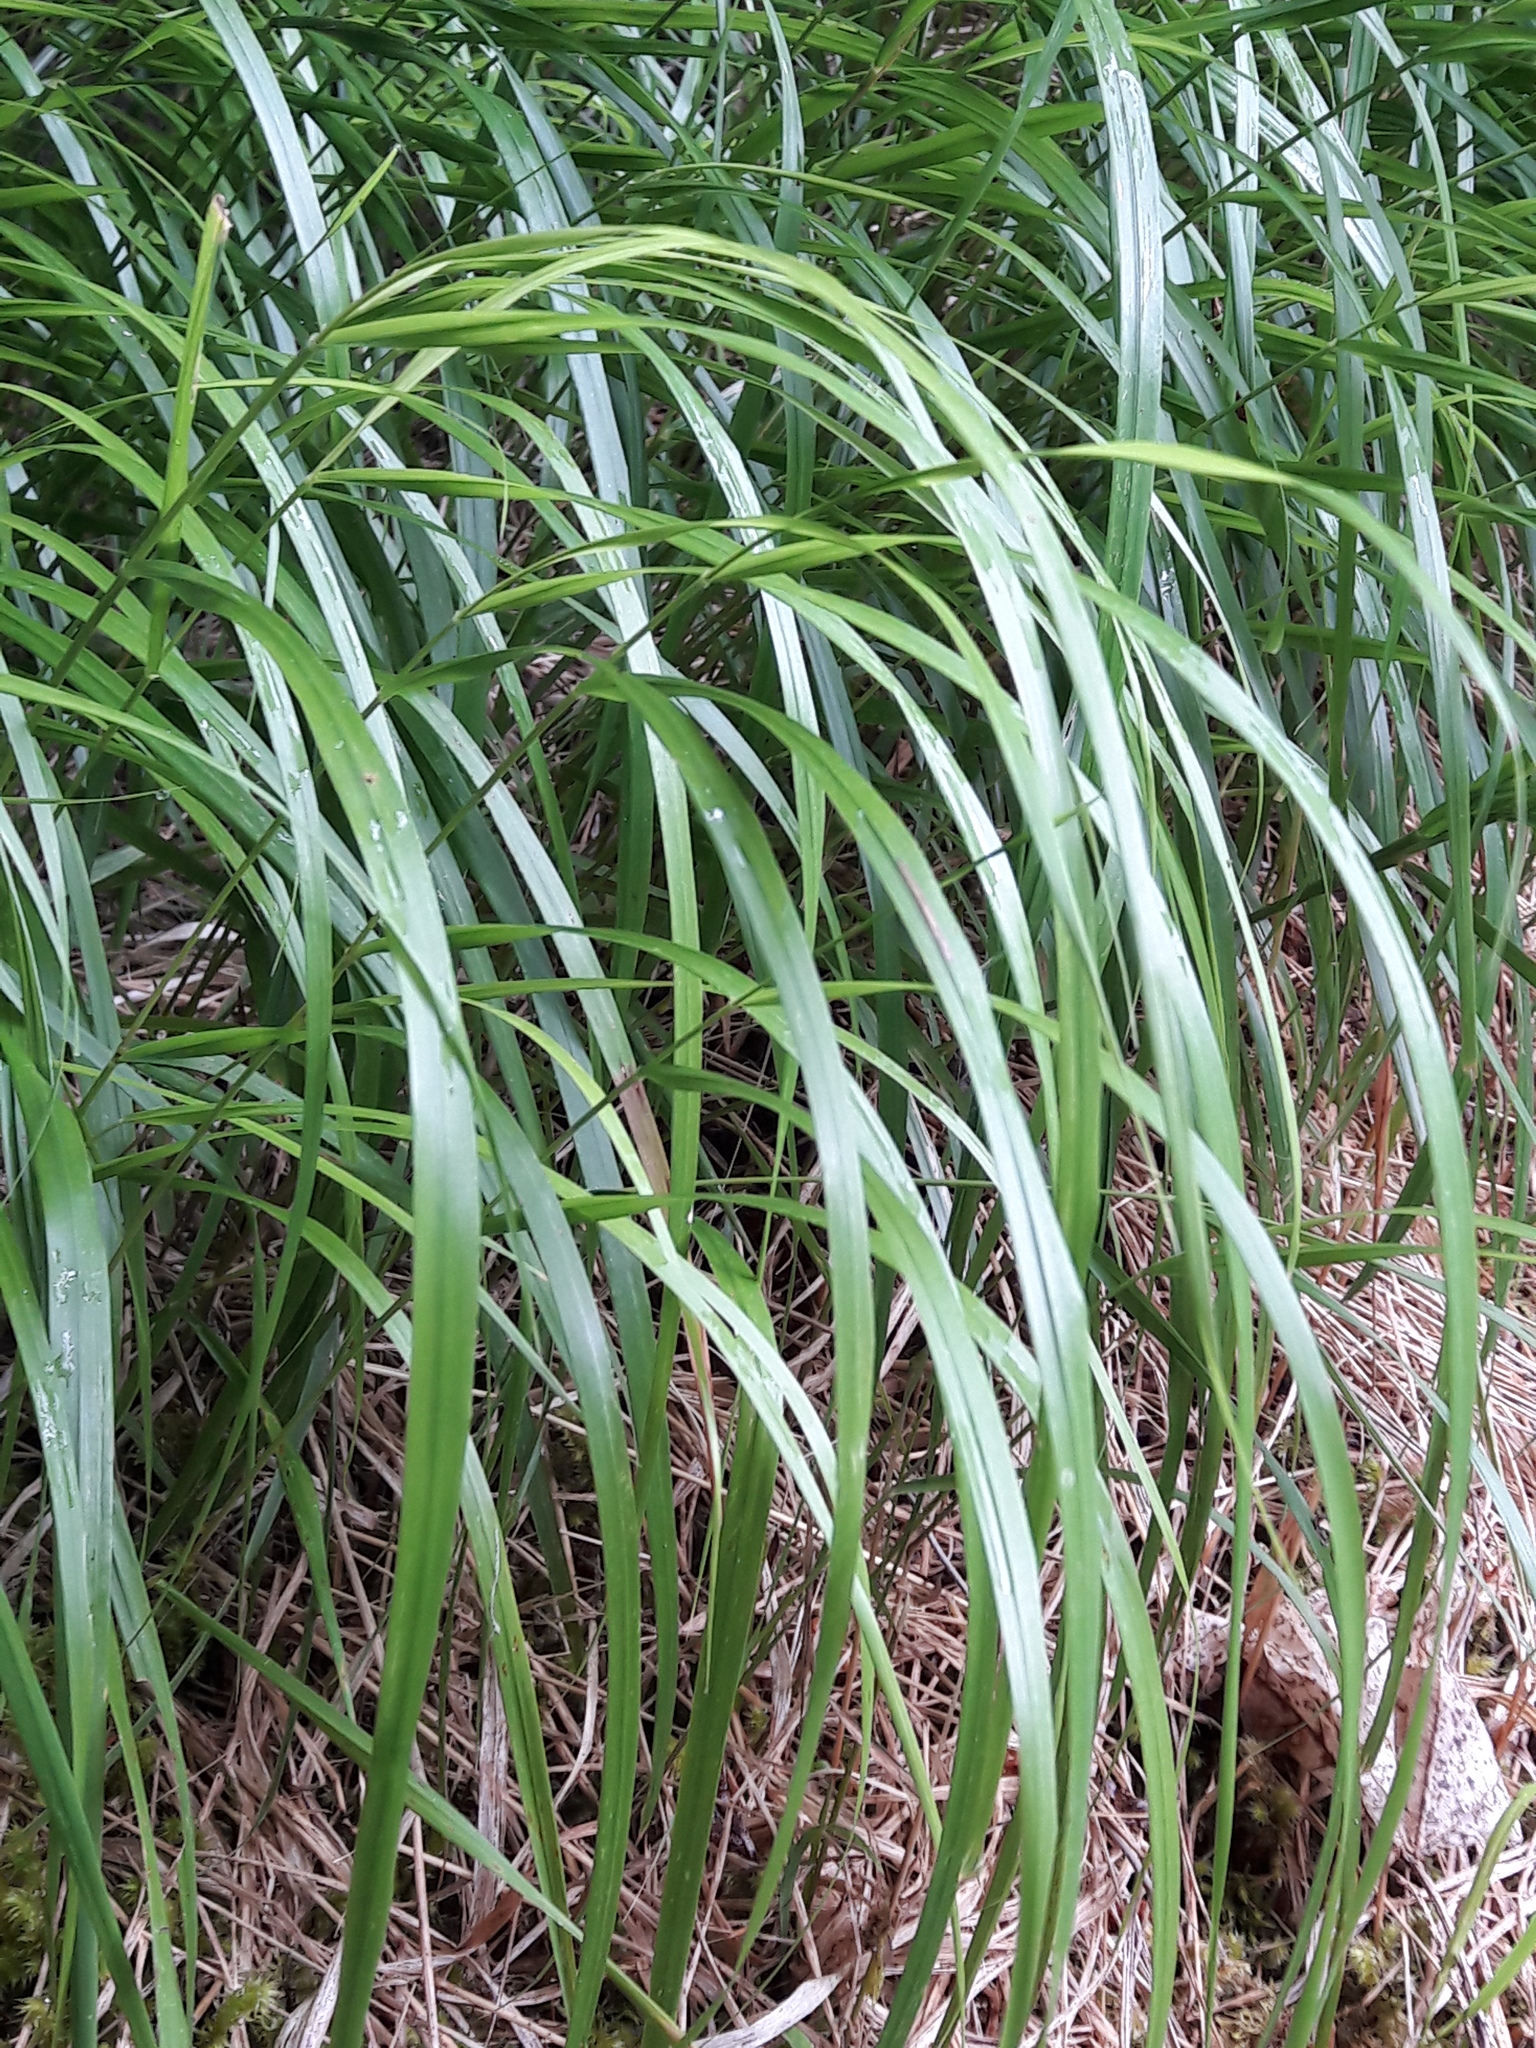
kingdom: Plantae
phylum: Tracheophyta
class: Liliopsida
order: Poales
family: Juncaceae
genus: Luzula
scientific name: Luzula nivea
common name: Snow-white wood-rush
